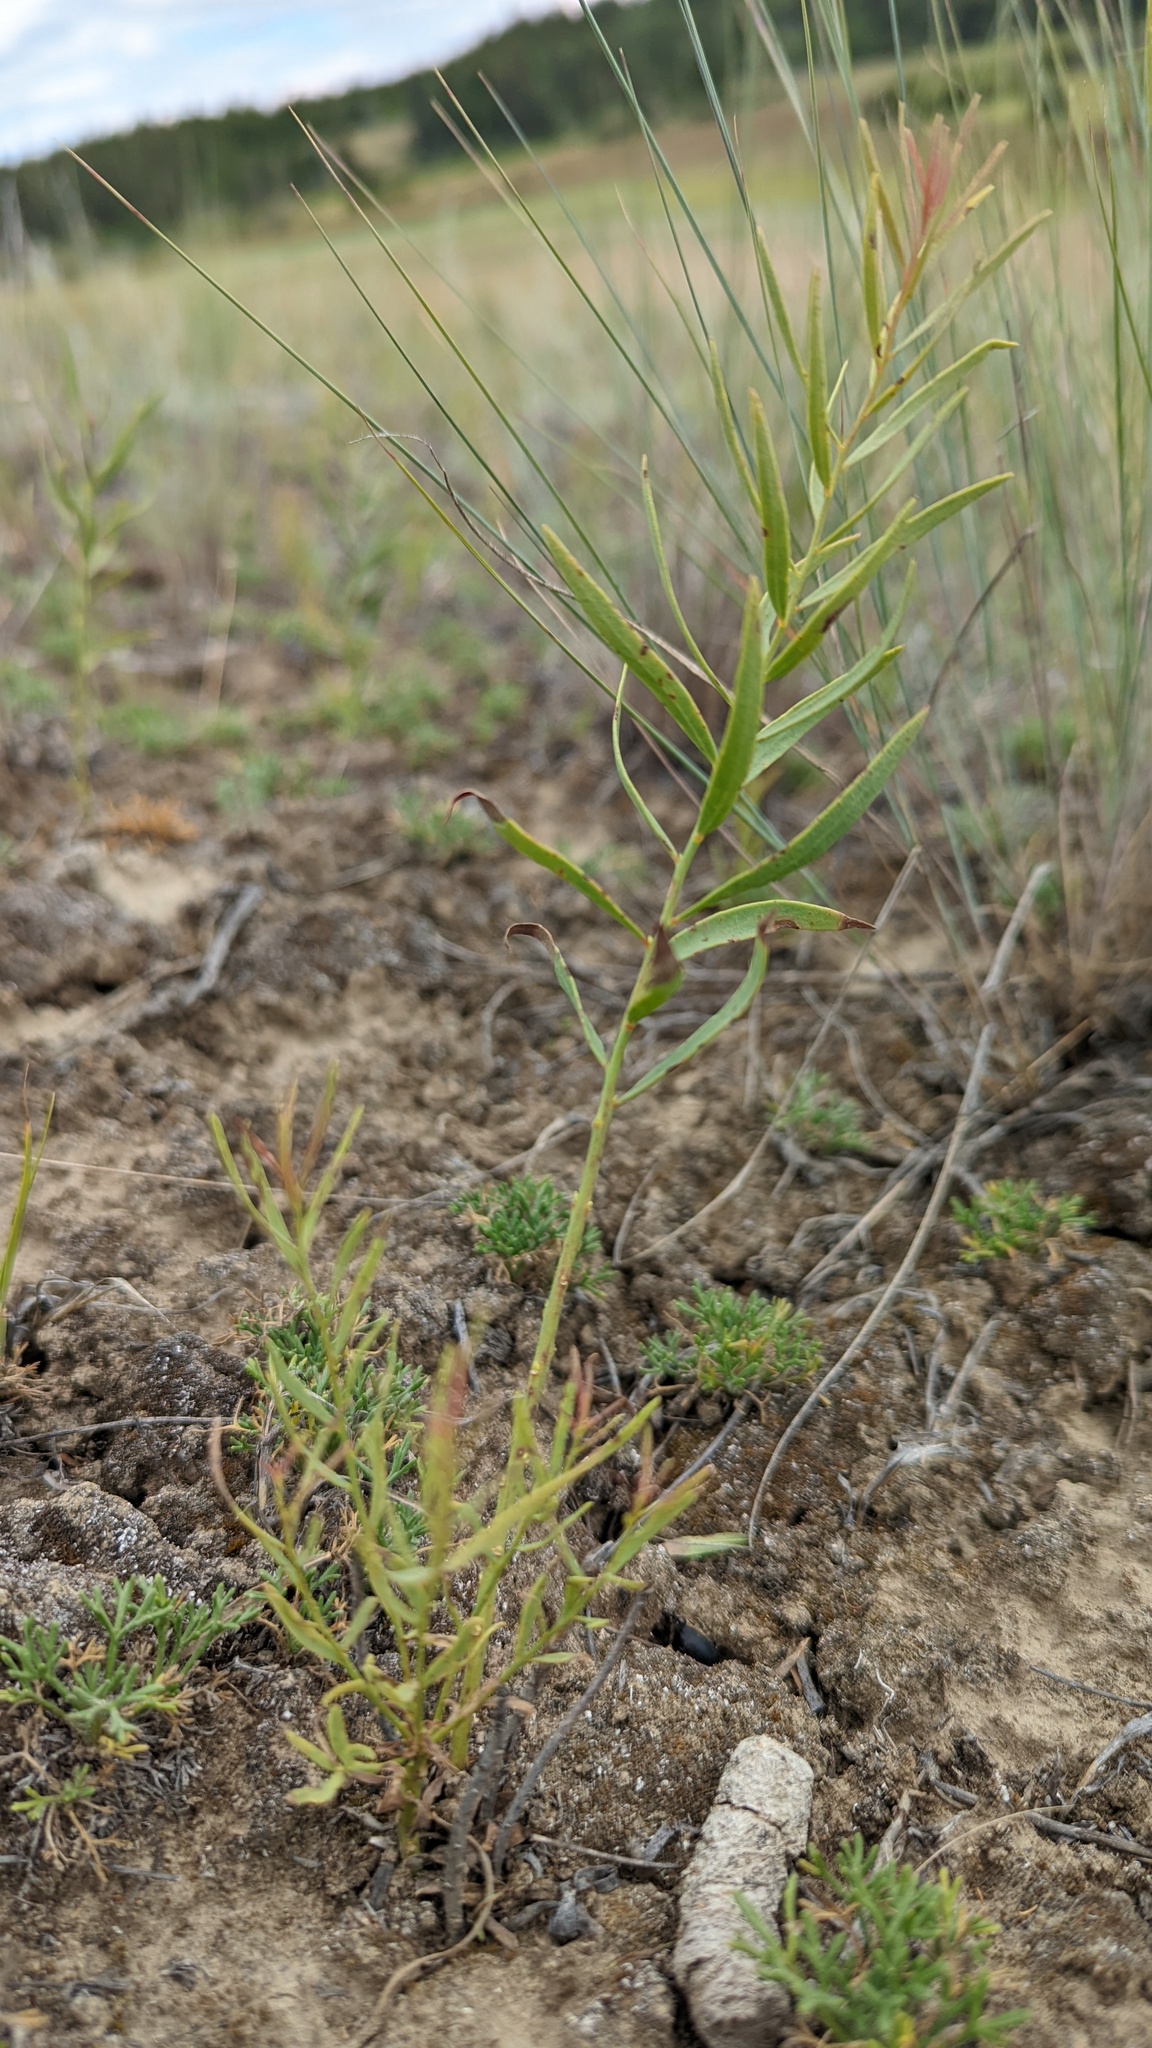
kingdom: Plantae
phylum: Tracheophyta
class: Magnoliopsida
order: Santalales
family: Comandraceae
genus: Comandra
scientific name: Comandra umbellata
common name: Bastard toadflax
